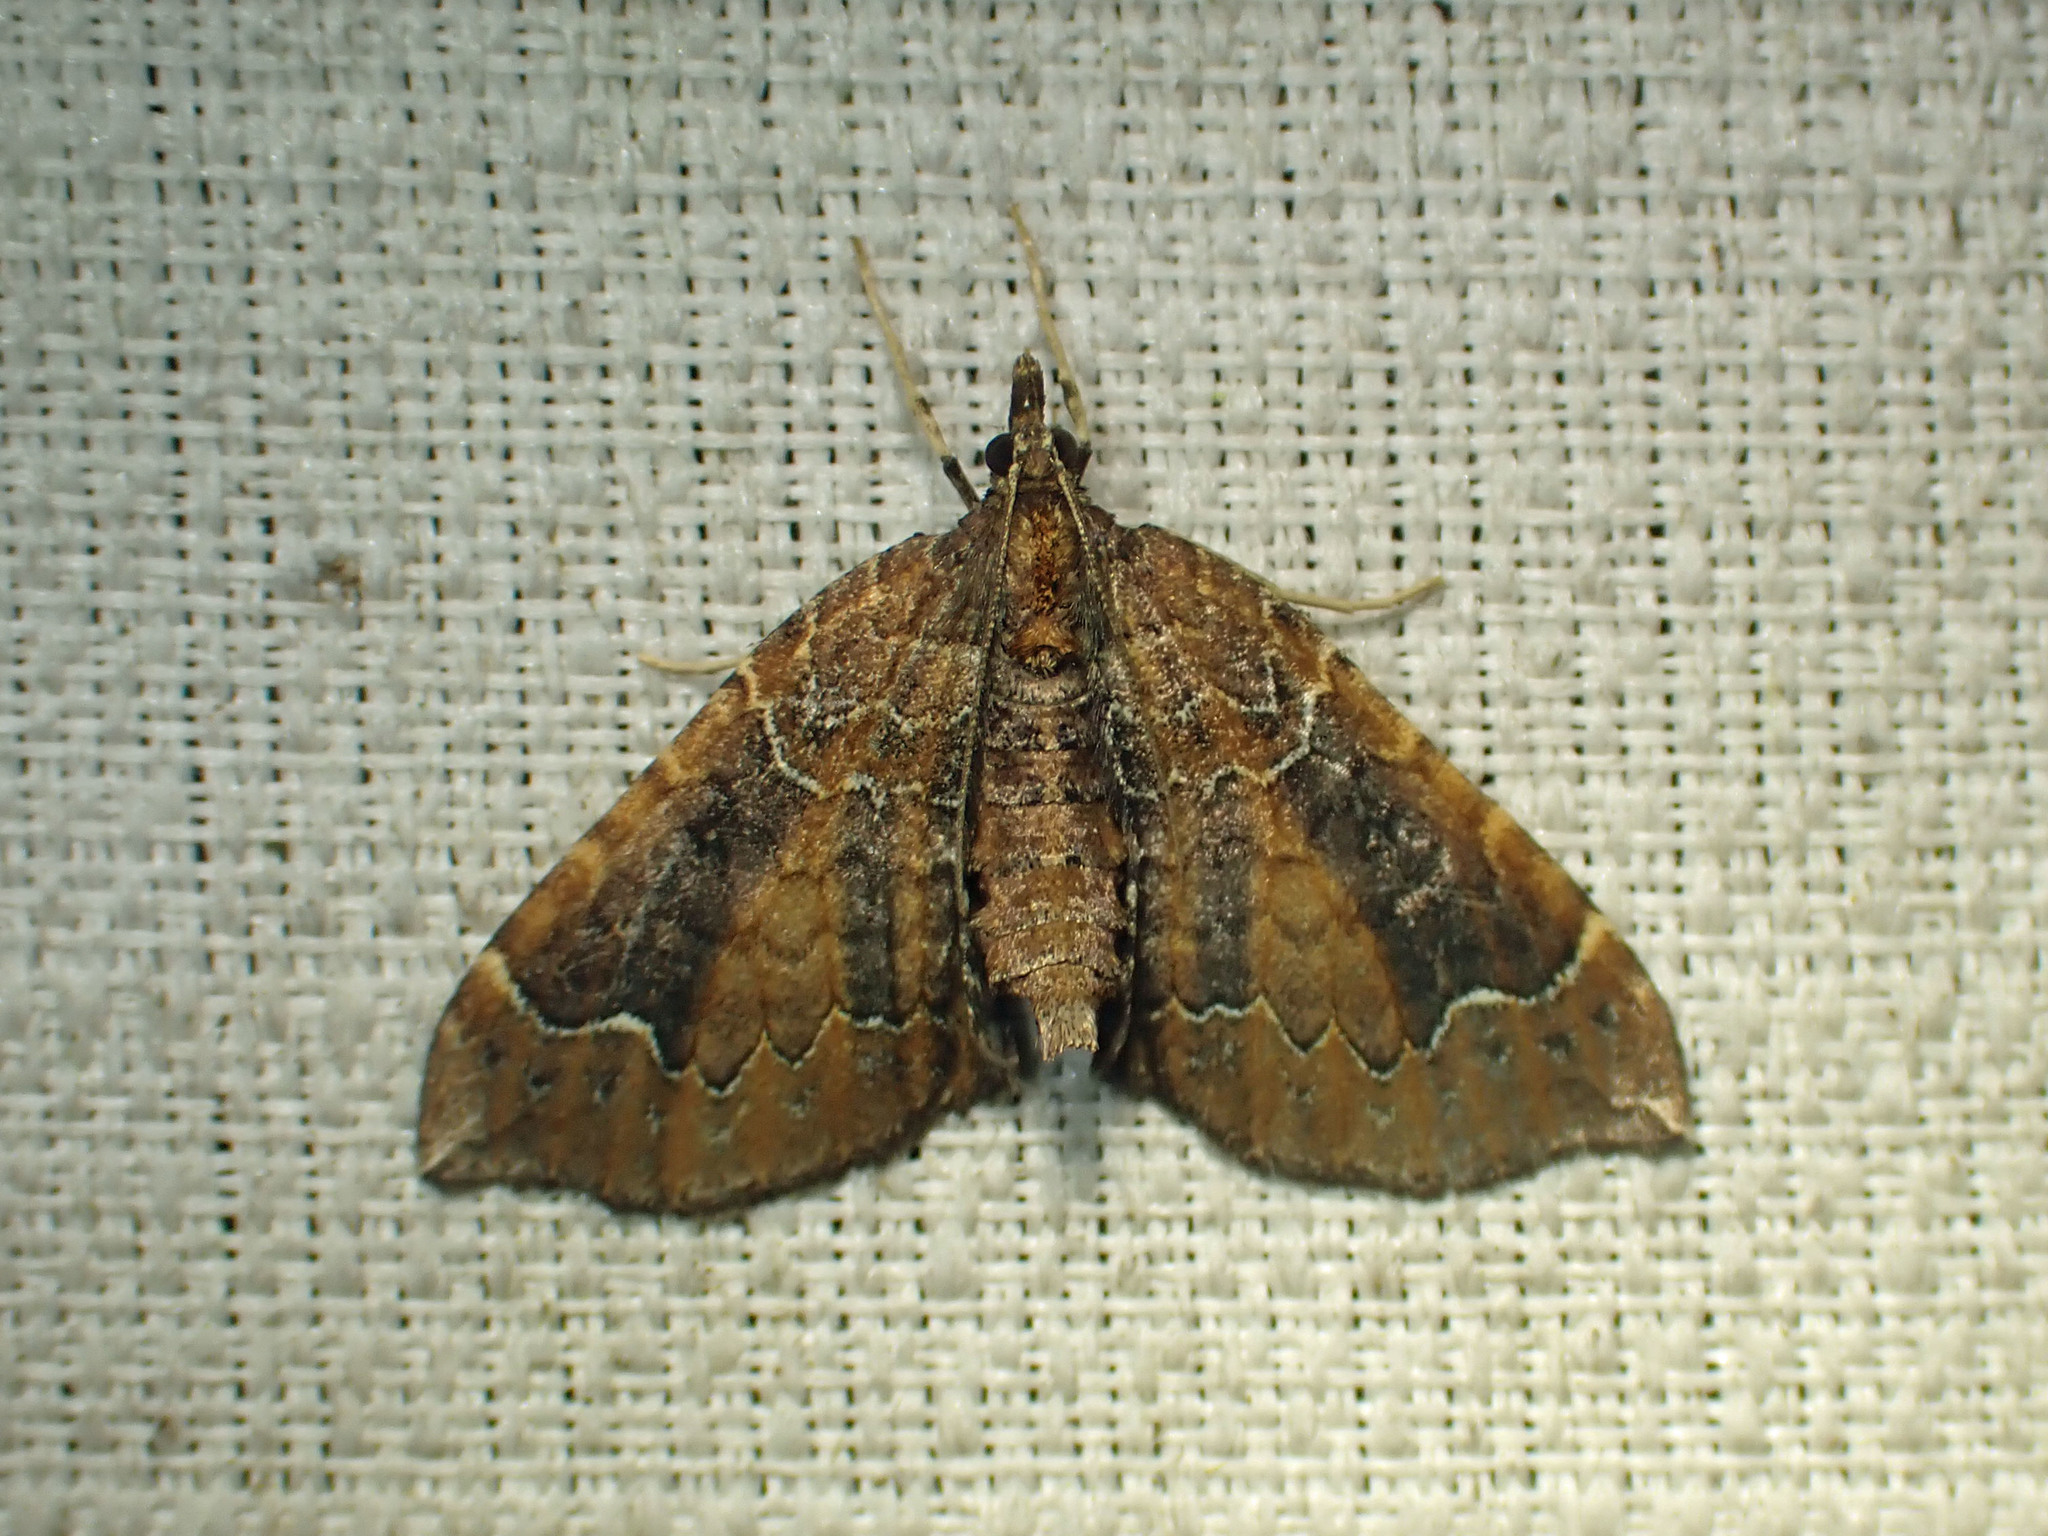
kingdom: Animalia
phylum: Arthropoda
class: Insecta
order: Lepidoptera
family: Geometridae
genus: Eulithis
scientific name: Eulithis flavibrunneata
